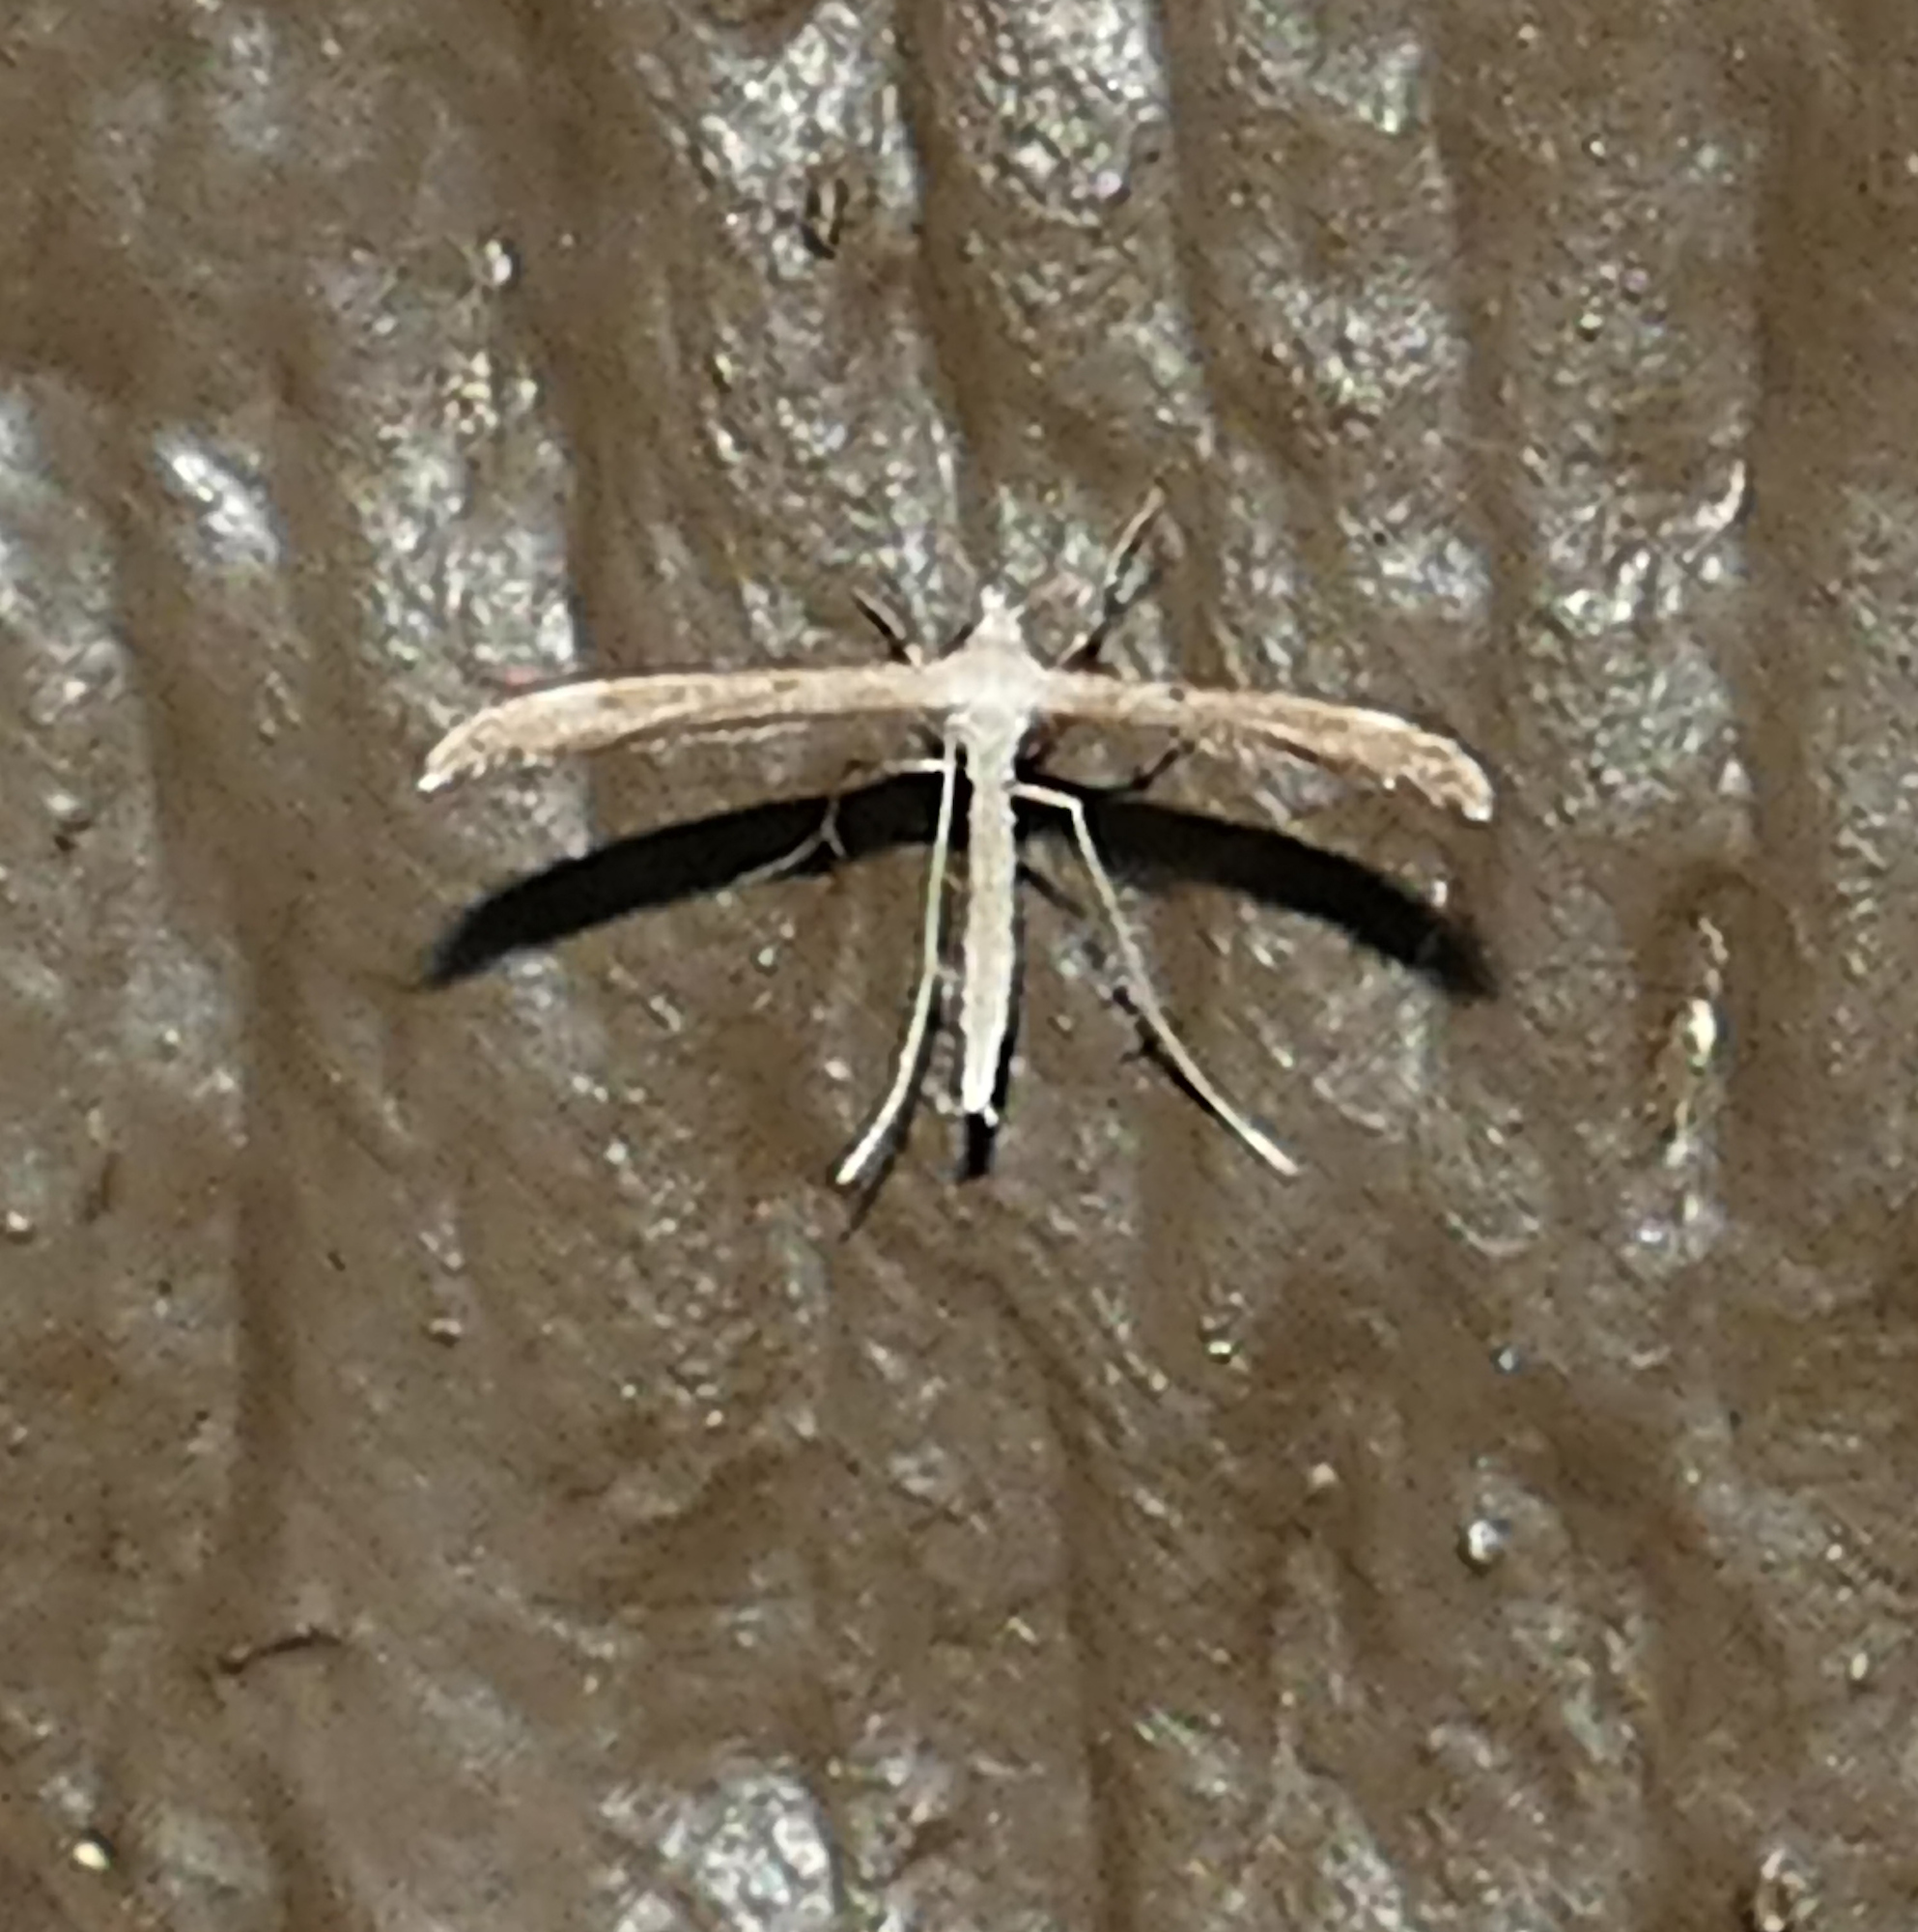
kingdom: Animalia
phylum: Arthropoda
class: Insecta
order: Lepidoptera
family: Pterophoridae
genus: Lioptilodes
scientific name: Lioptilodes albistriolatus
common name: Moth
